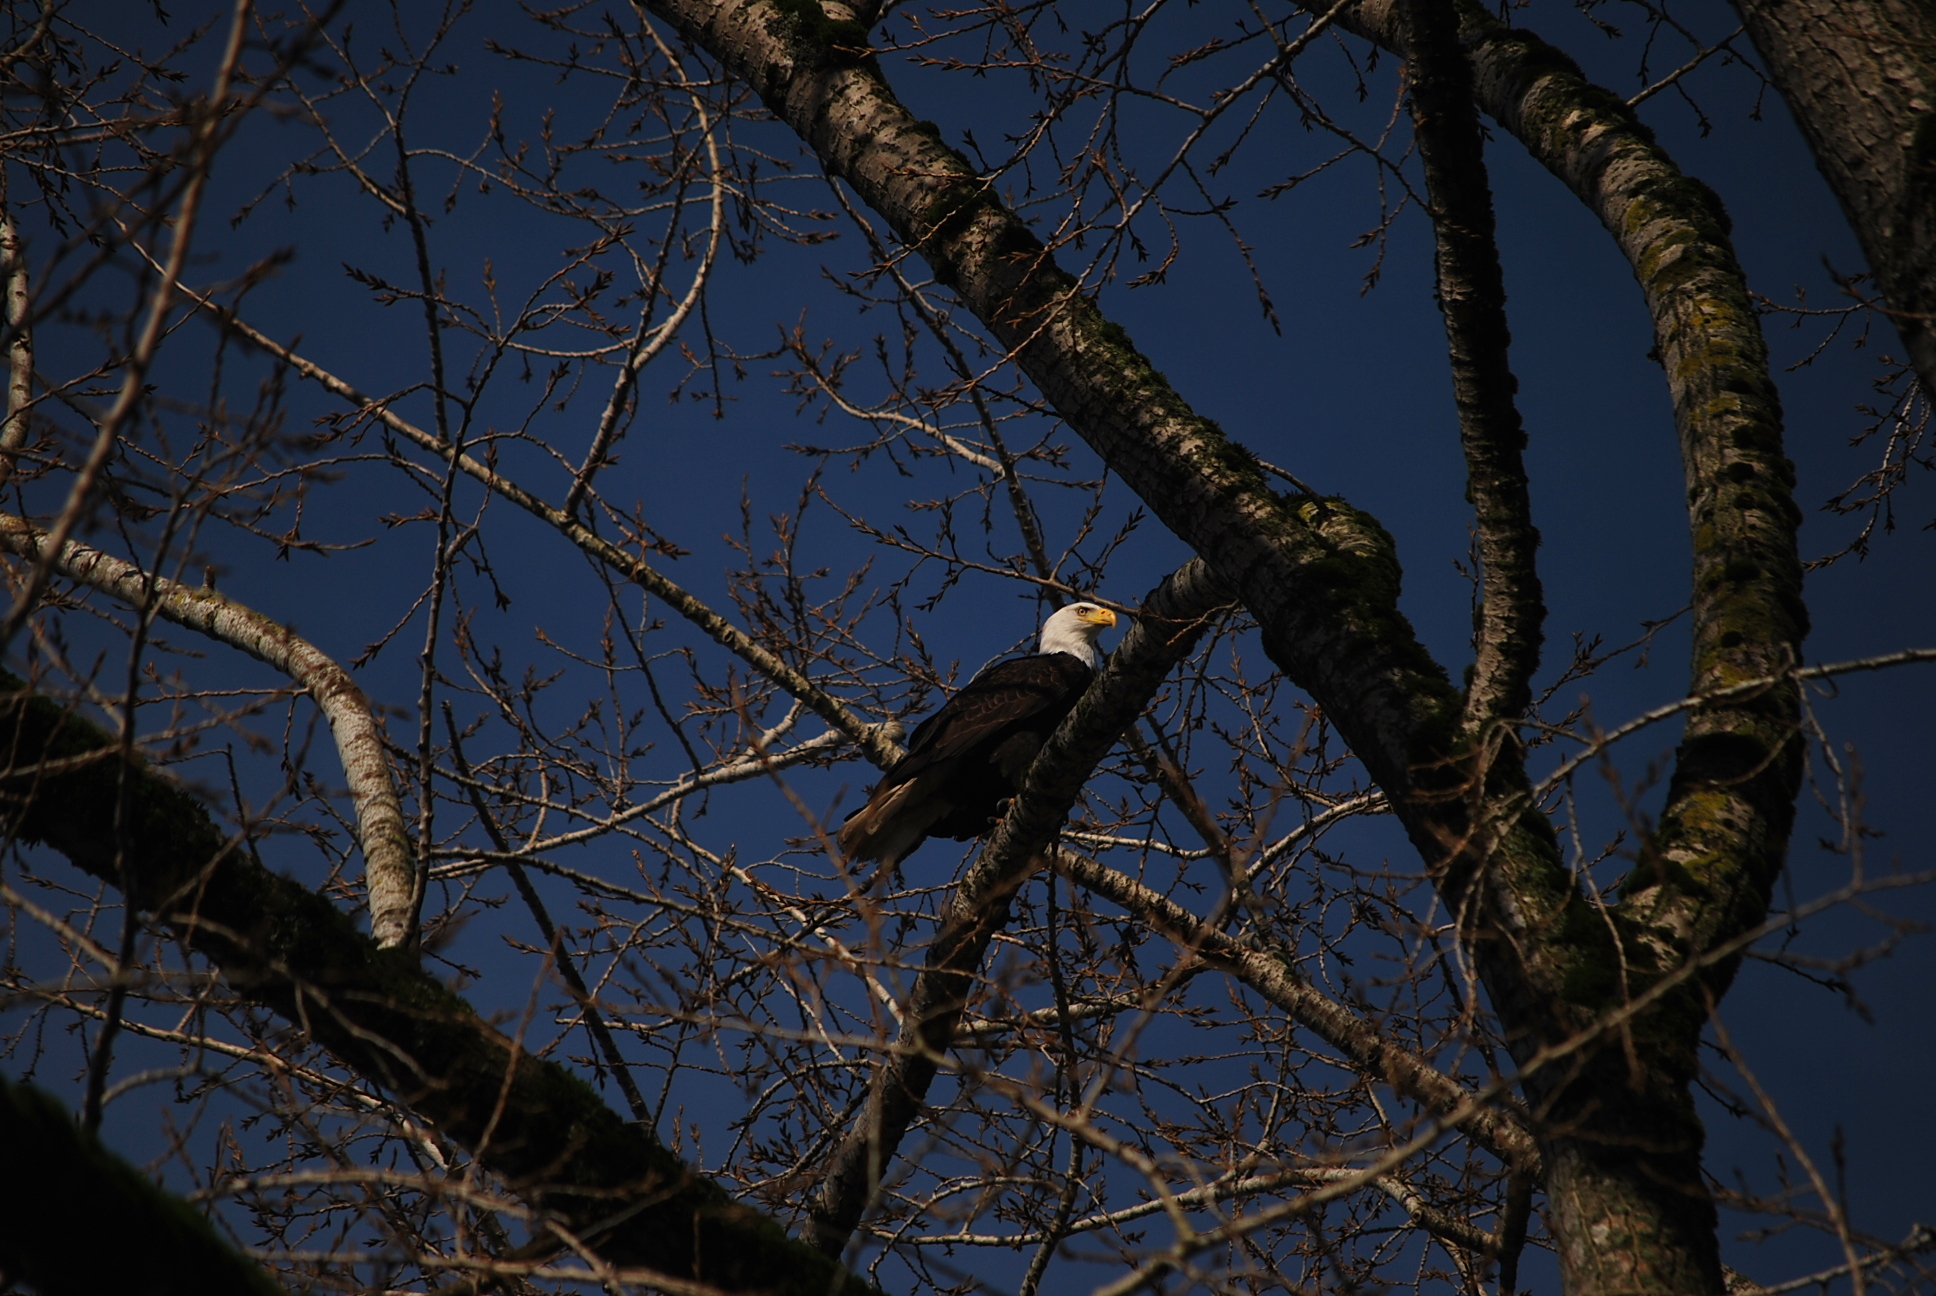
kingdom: Animalia
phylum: Chordata
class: Aves
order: Accipitriformes
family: Accipitridae
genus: Haliaeetus
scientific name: Haliaeetus leucocephalus
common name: Bald eagle
